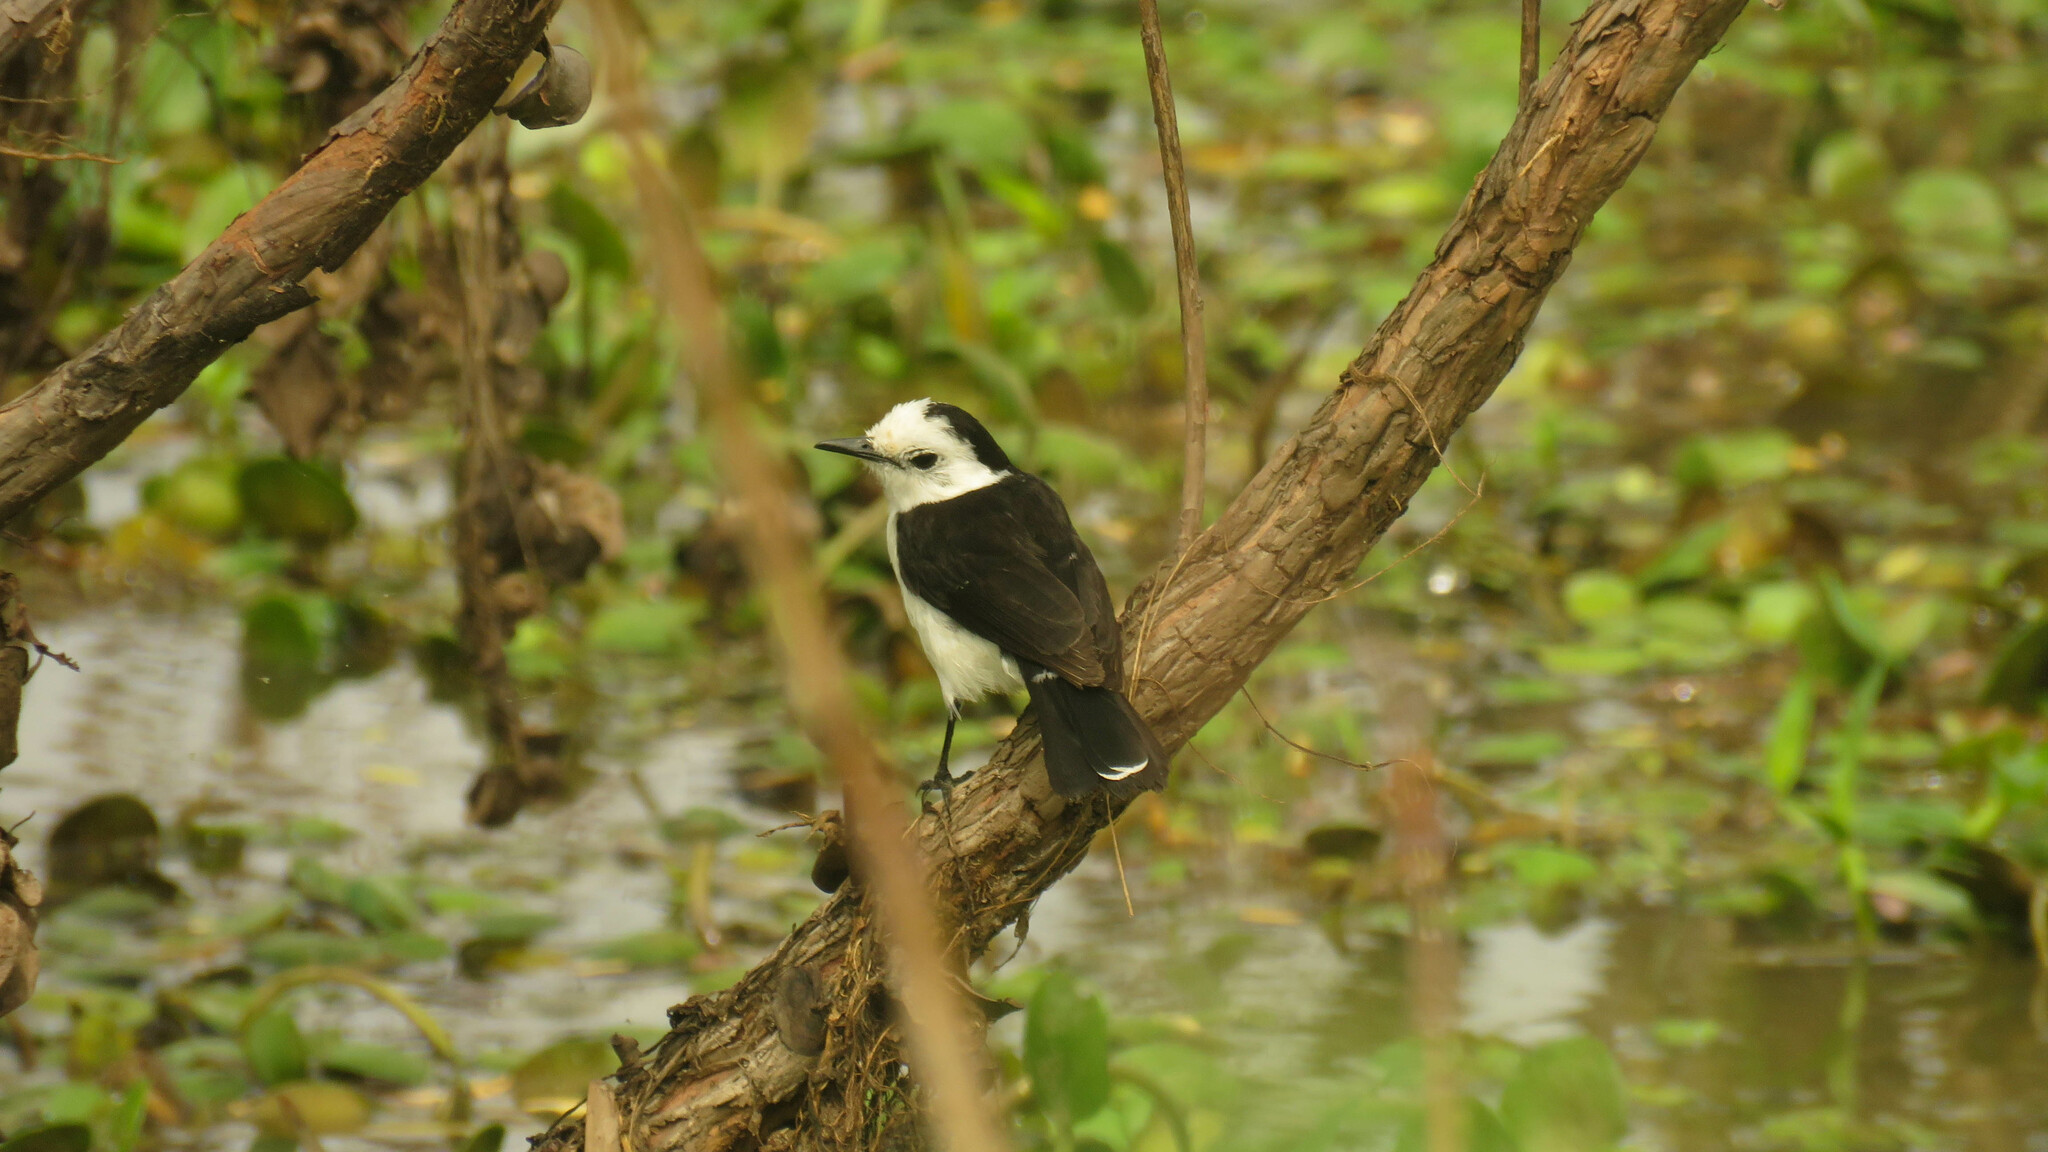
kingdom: Animalia
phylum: Chordata
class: Aves
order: Passeriformes
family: Tyrannidae
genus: Fluvicola
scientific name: Fluvicola pica
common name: Pied water-tyrant
